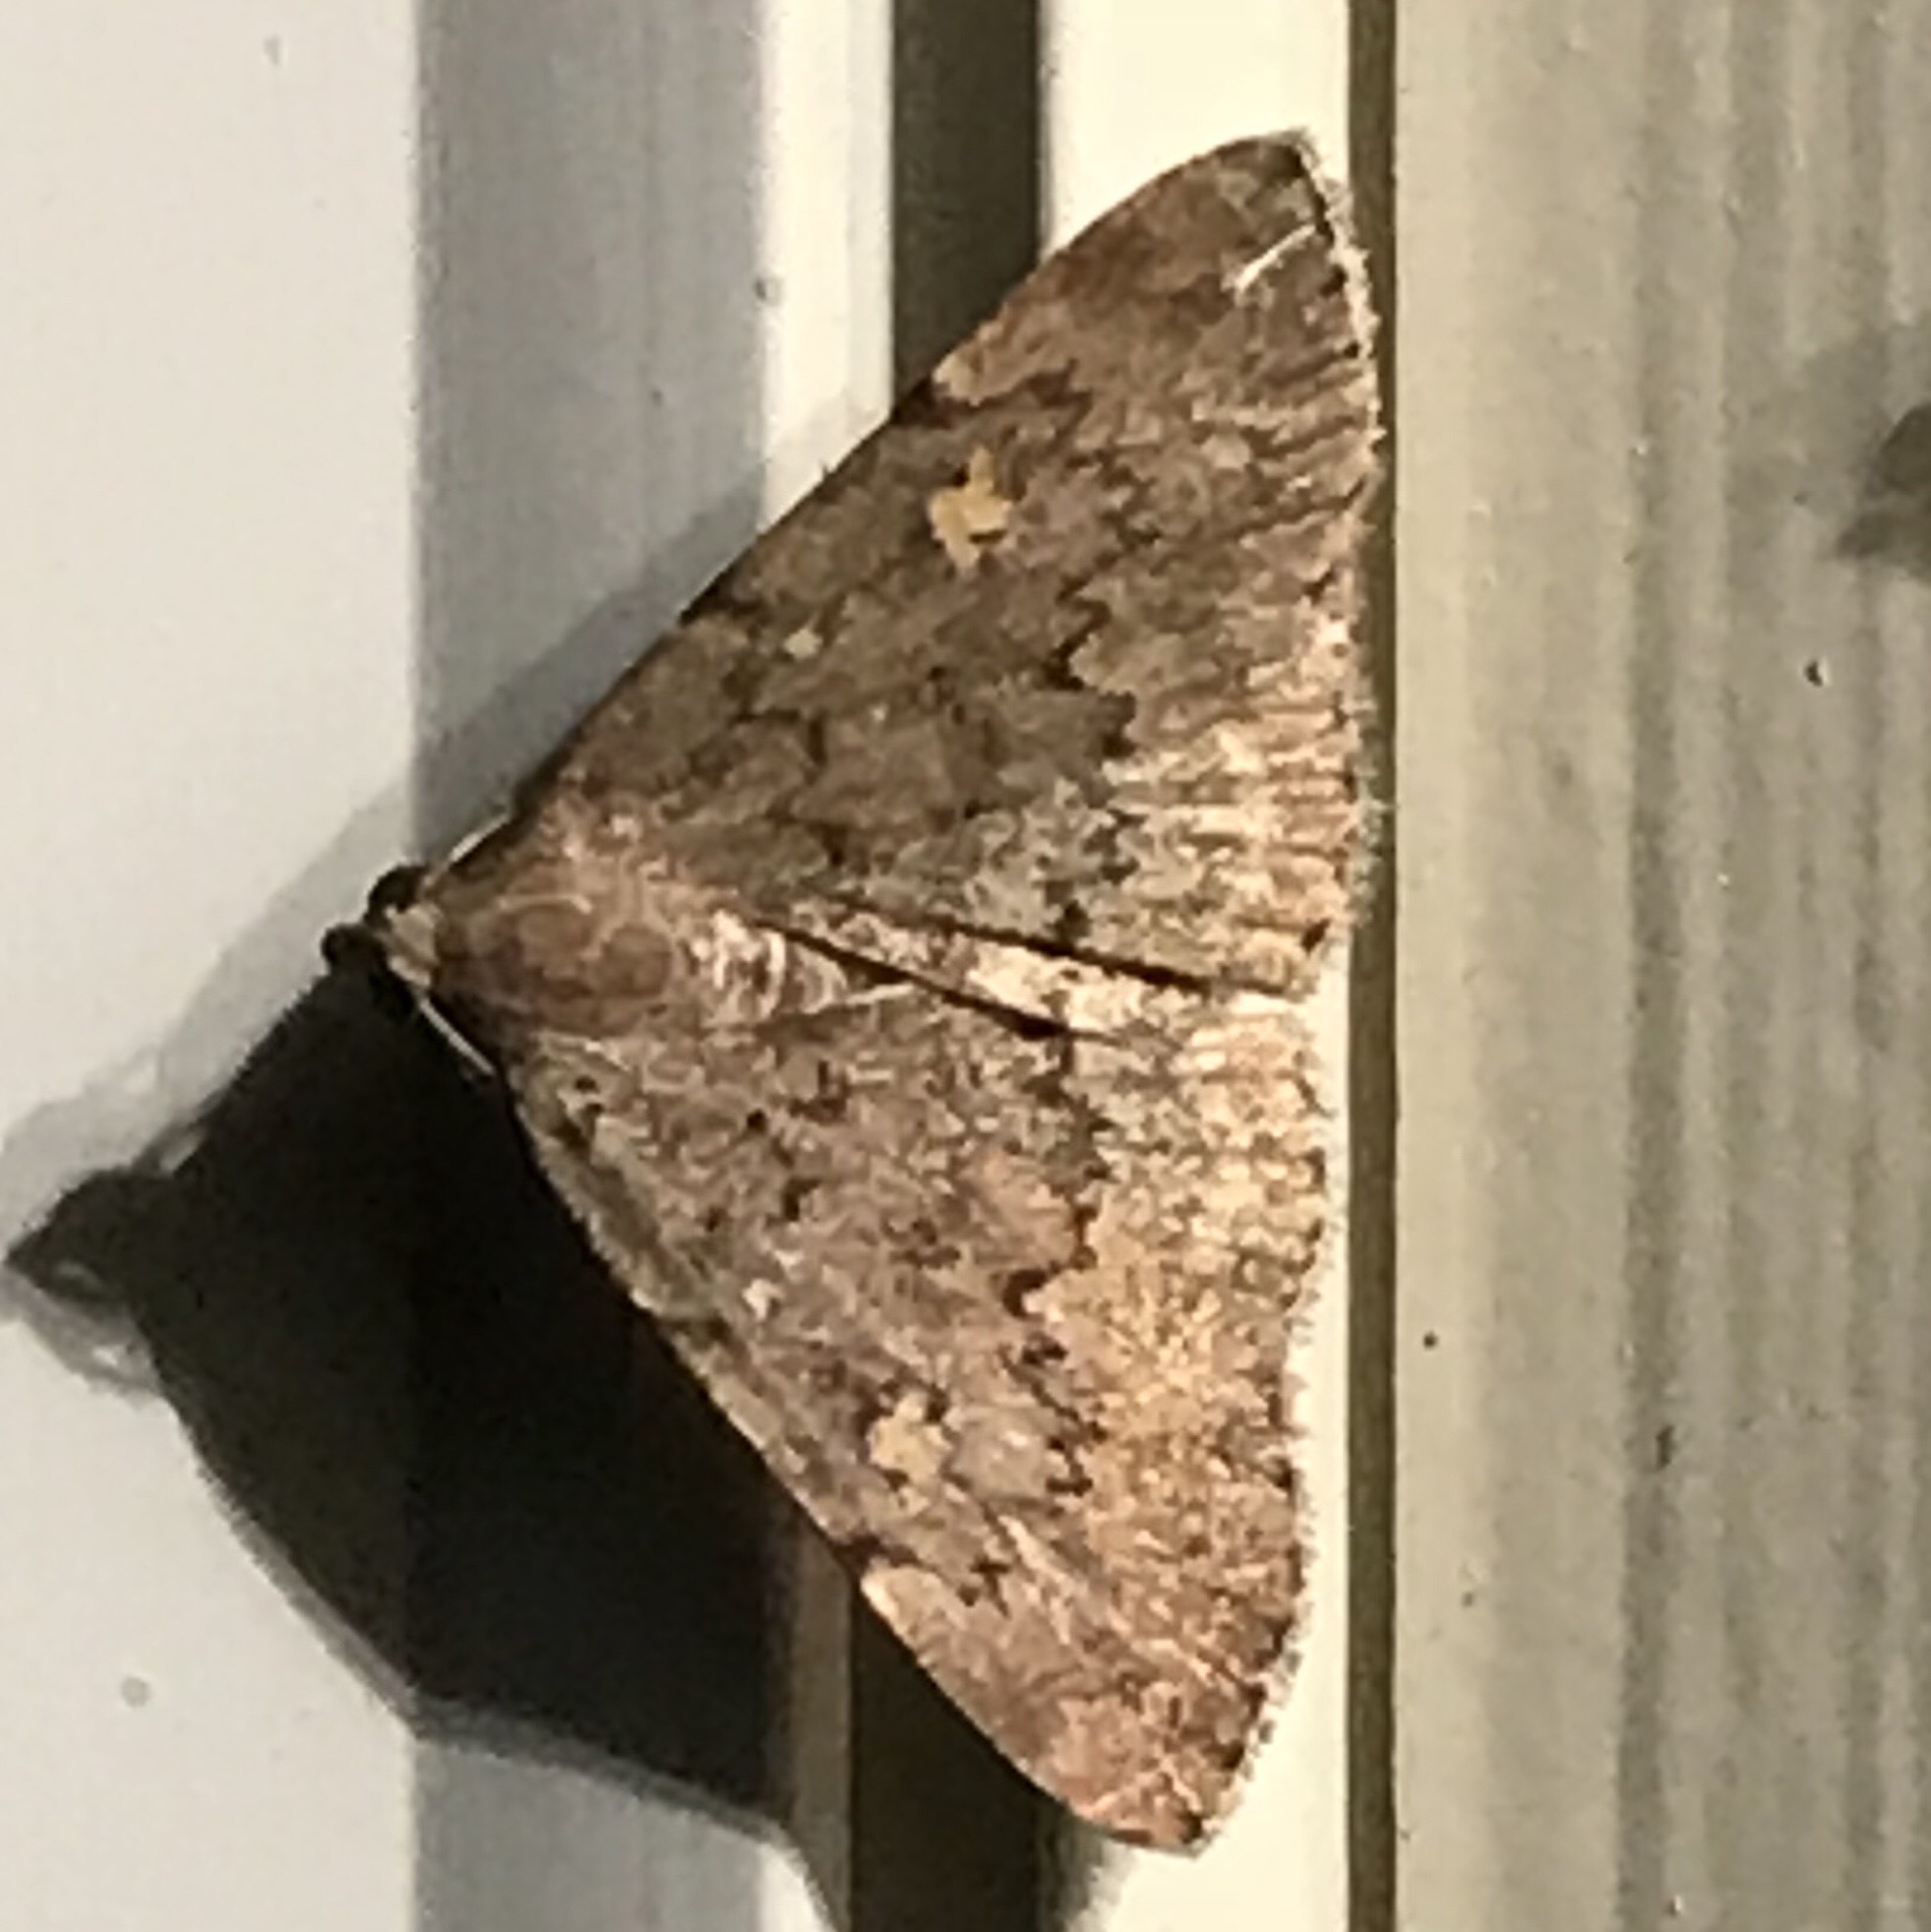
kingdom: Animalia
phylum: Arthropoda
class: Insecta
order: Lepidoptera
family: Erebidae
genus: Idia
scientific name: Idia aemula
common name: Common idia moth
